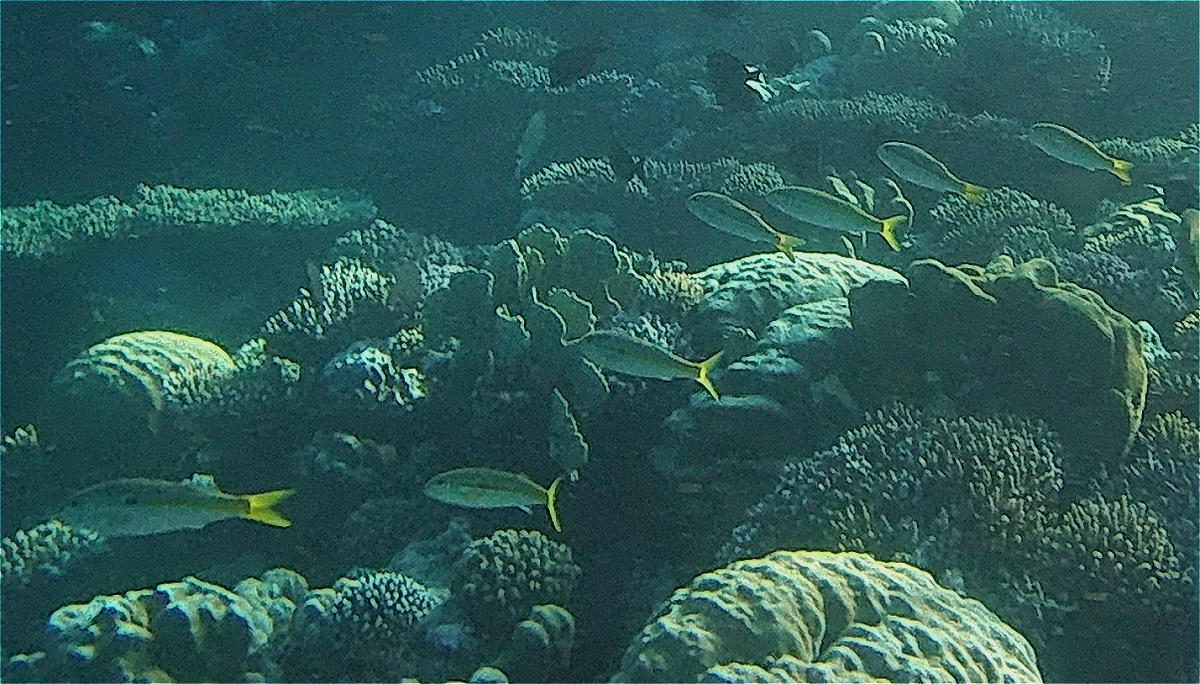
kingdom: Animalia
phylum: Chordata
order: Perciformes
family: Mullidae
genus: Mulloidichthys
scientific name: Mulloidichthys flavolineatus
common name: Yellowstripe goatfish
